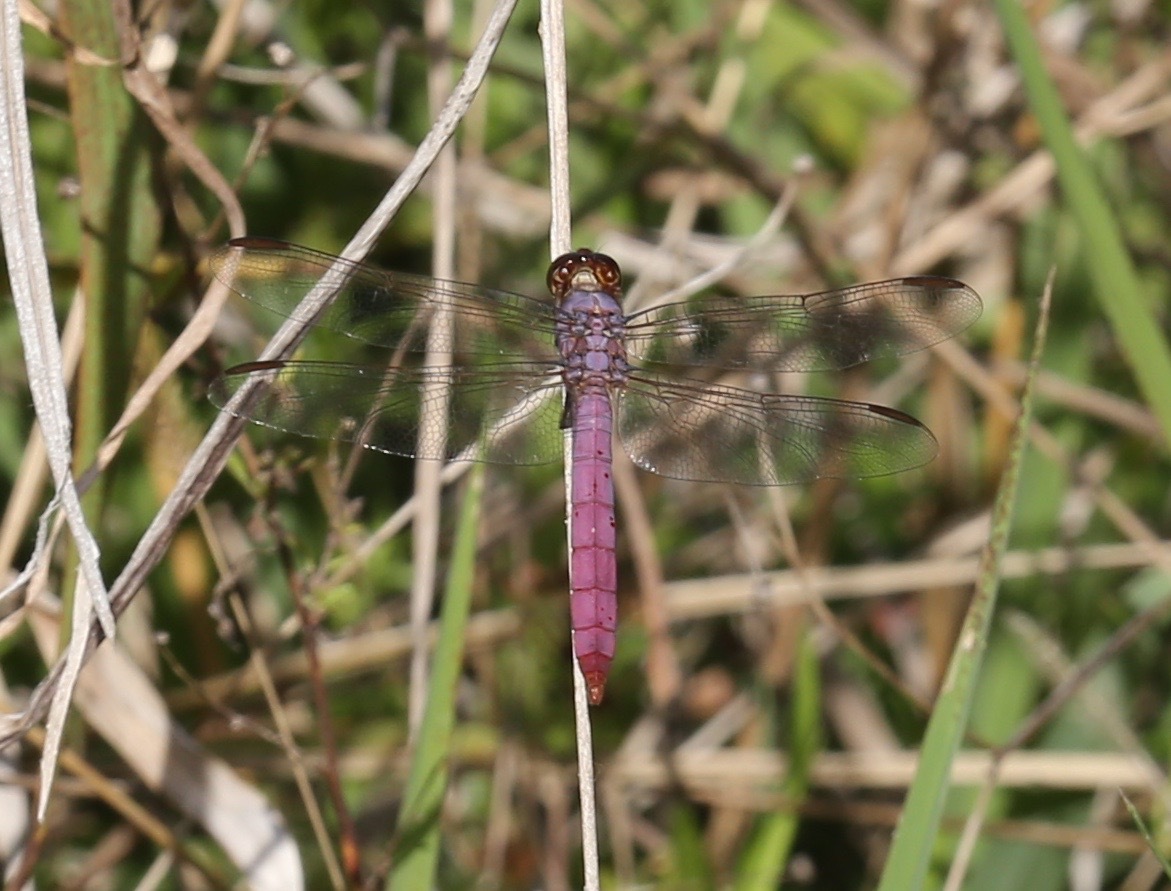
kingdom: Animalia
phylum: Arthropoda
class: Insecta
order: Odonata
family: Libellulidae
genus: Orthemis
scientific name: Orthemis ferruginea
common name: Roseate skimmer
